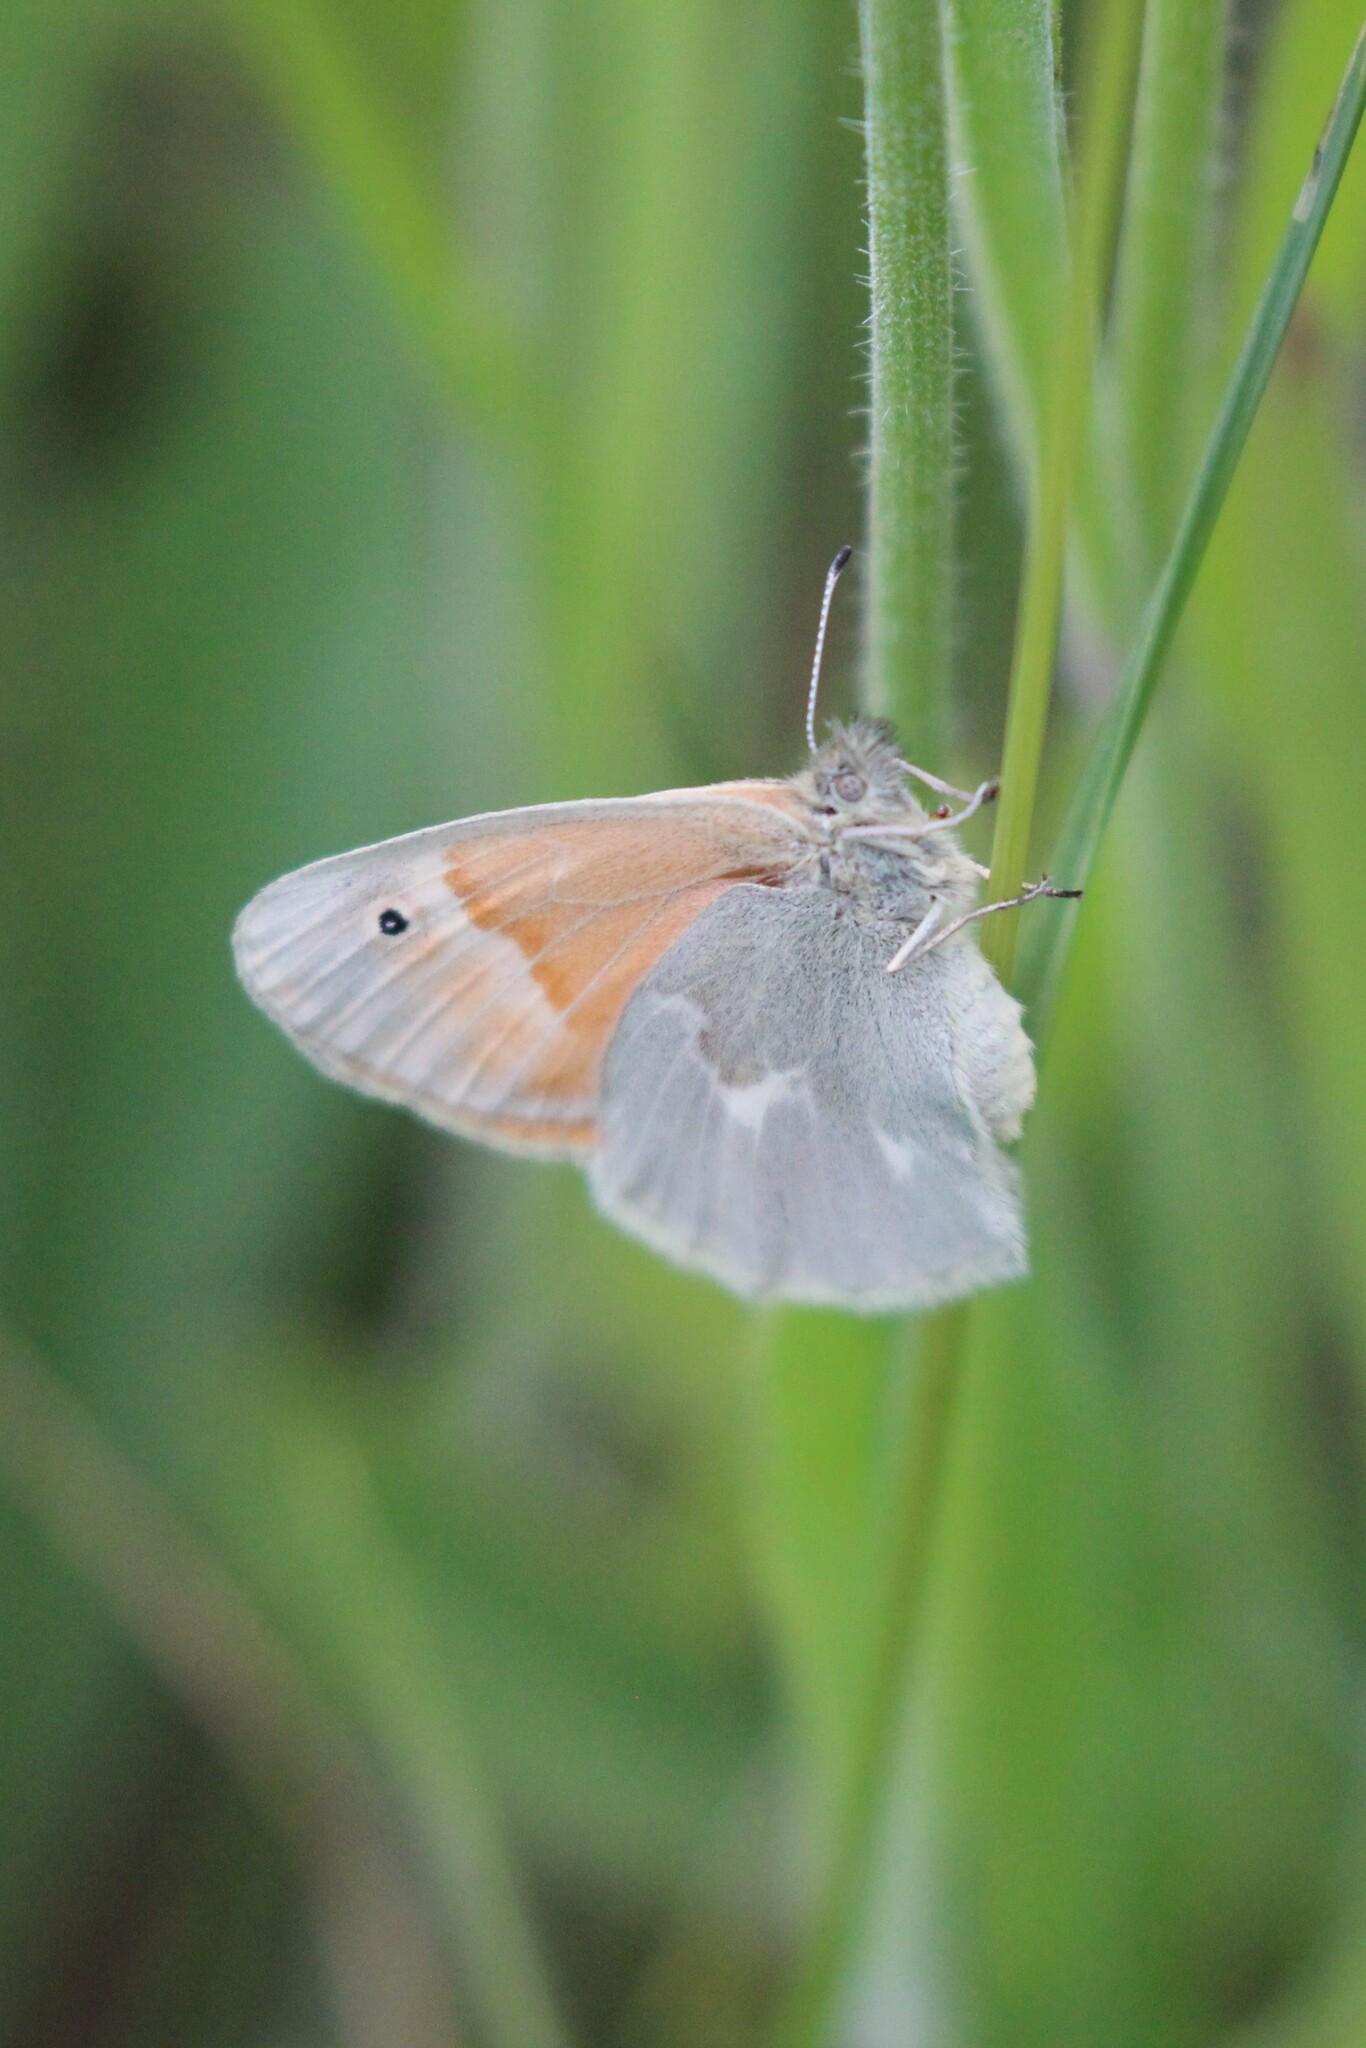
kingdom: Animalia
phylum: Arthropoda
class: Insecta
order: Lepidoptera
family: Nymphalidae
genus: Coenonympha
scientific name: Coenonympha california
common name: Common ringlet
